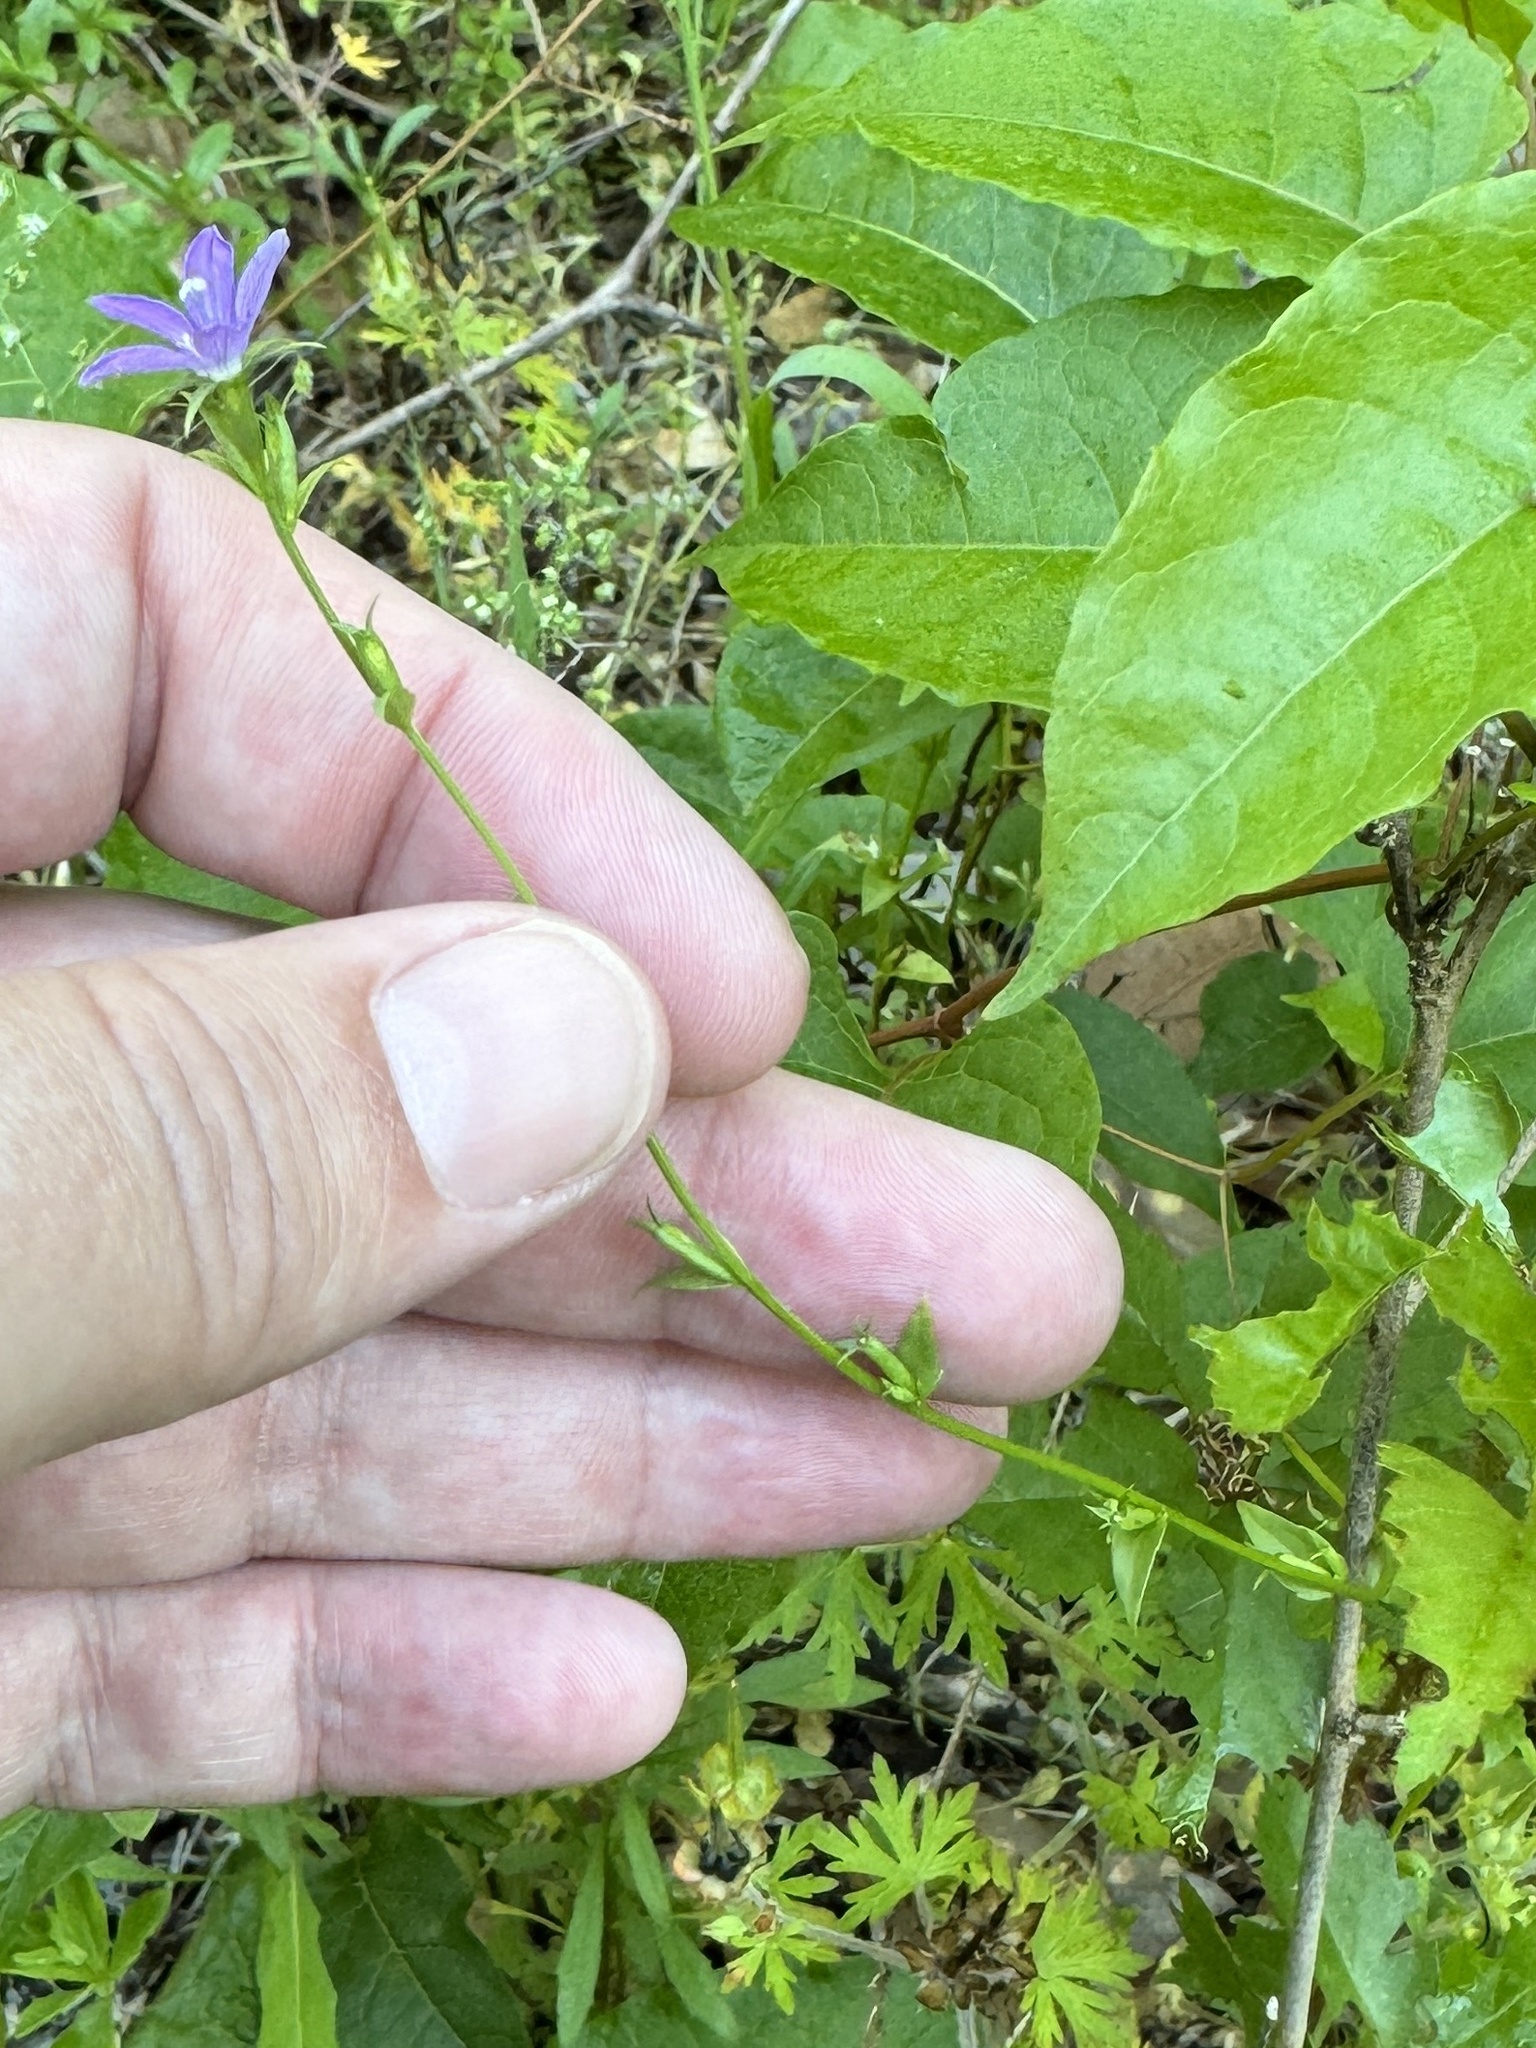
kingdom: Plantae
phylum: Tracheophyta
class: Magnoliopsida
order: Asterales
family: Campanulaceae
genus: Triodanis
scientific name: Triodanis biflora
